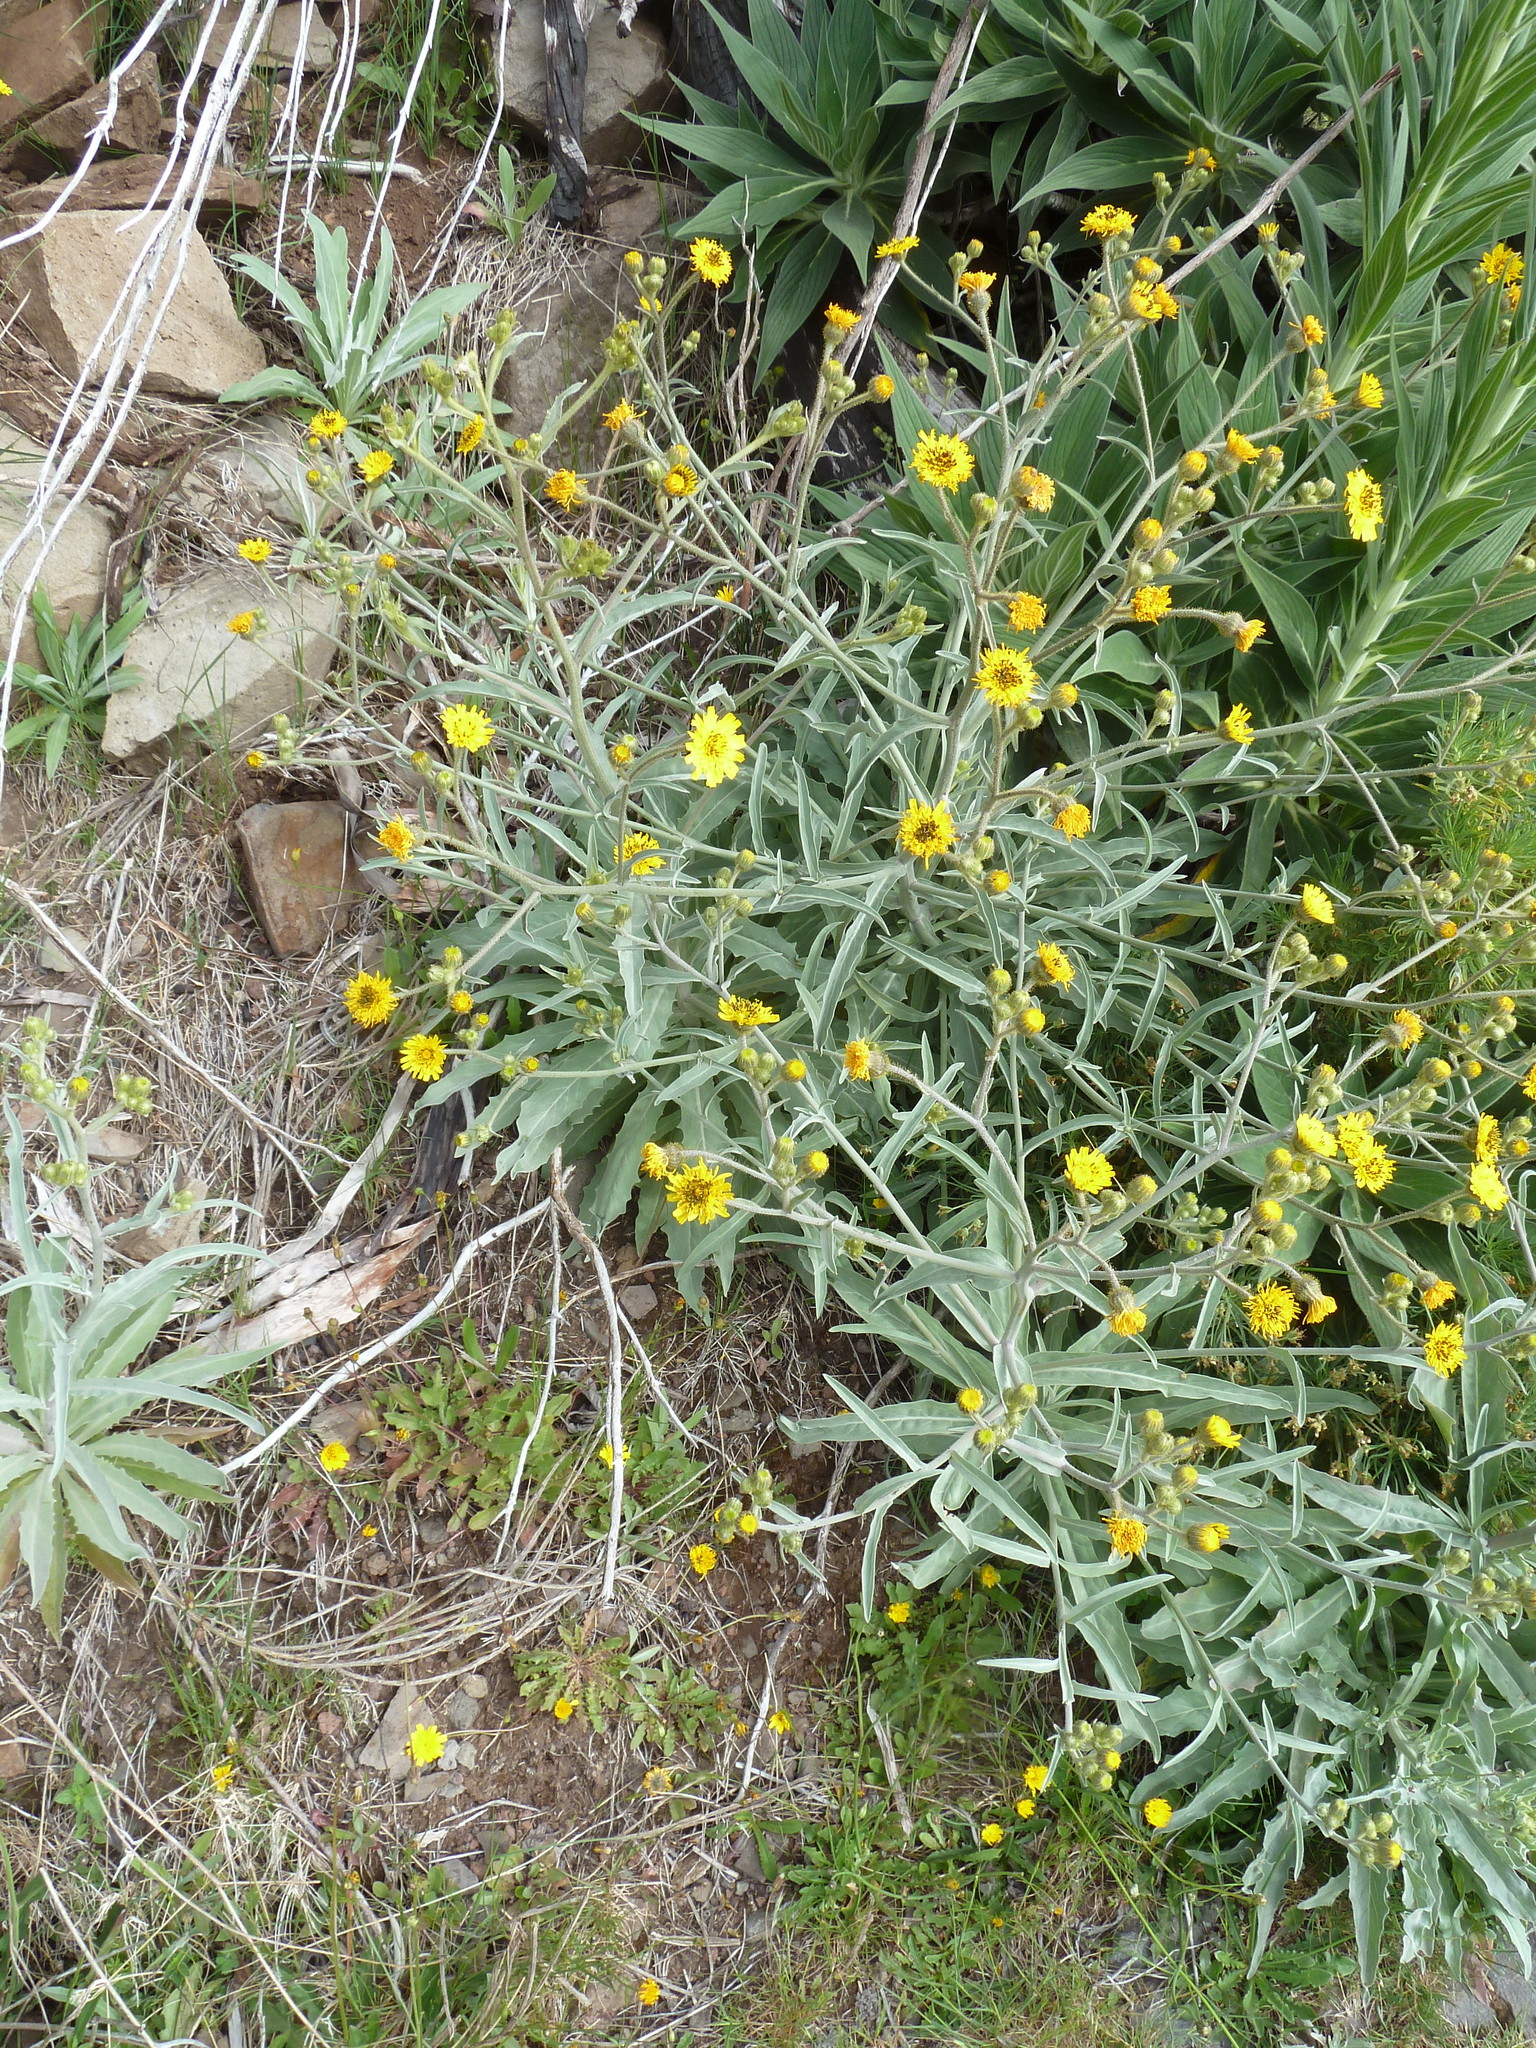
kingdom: Plantae
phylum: Tracheophyta
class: Magnoliopsida
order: Asterales
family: Asteraceae
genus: Andryala
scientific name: Andryala glandulosa
